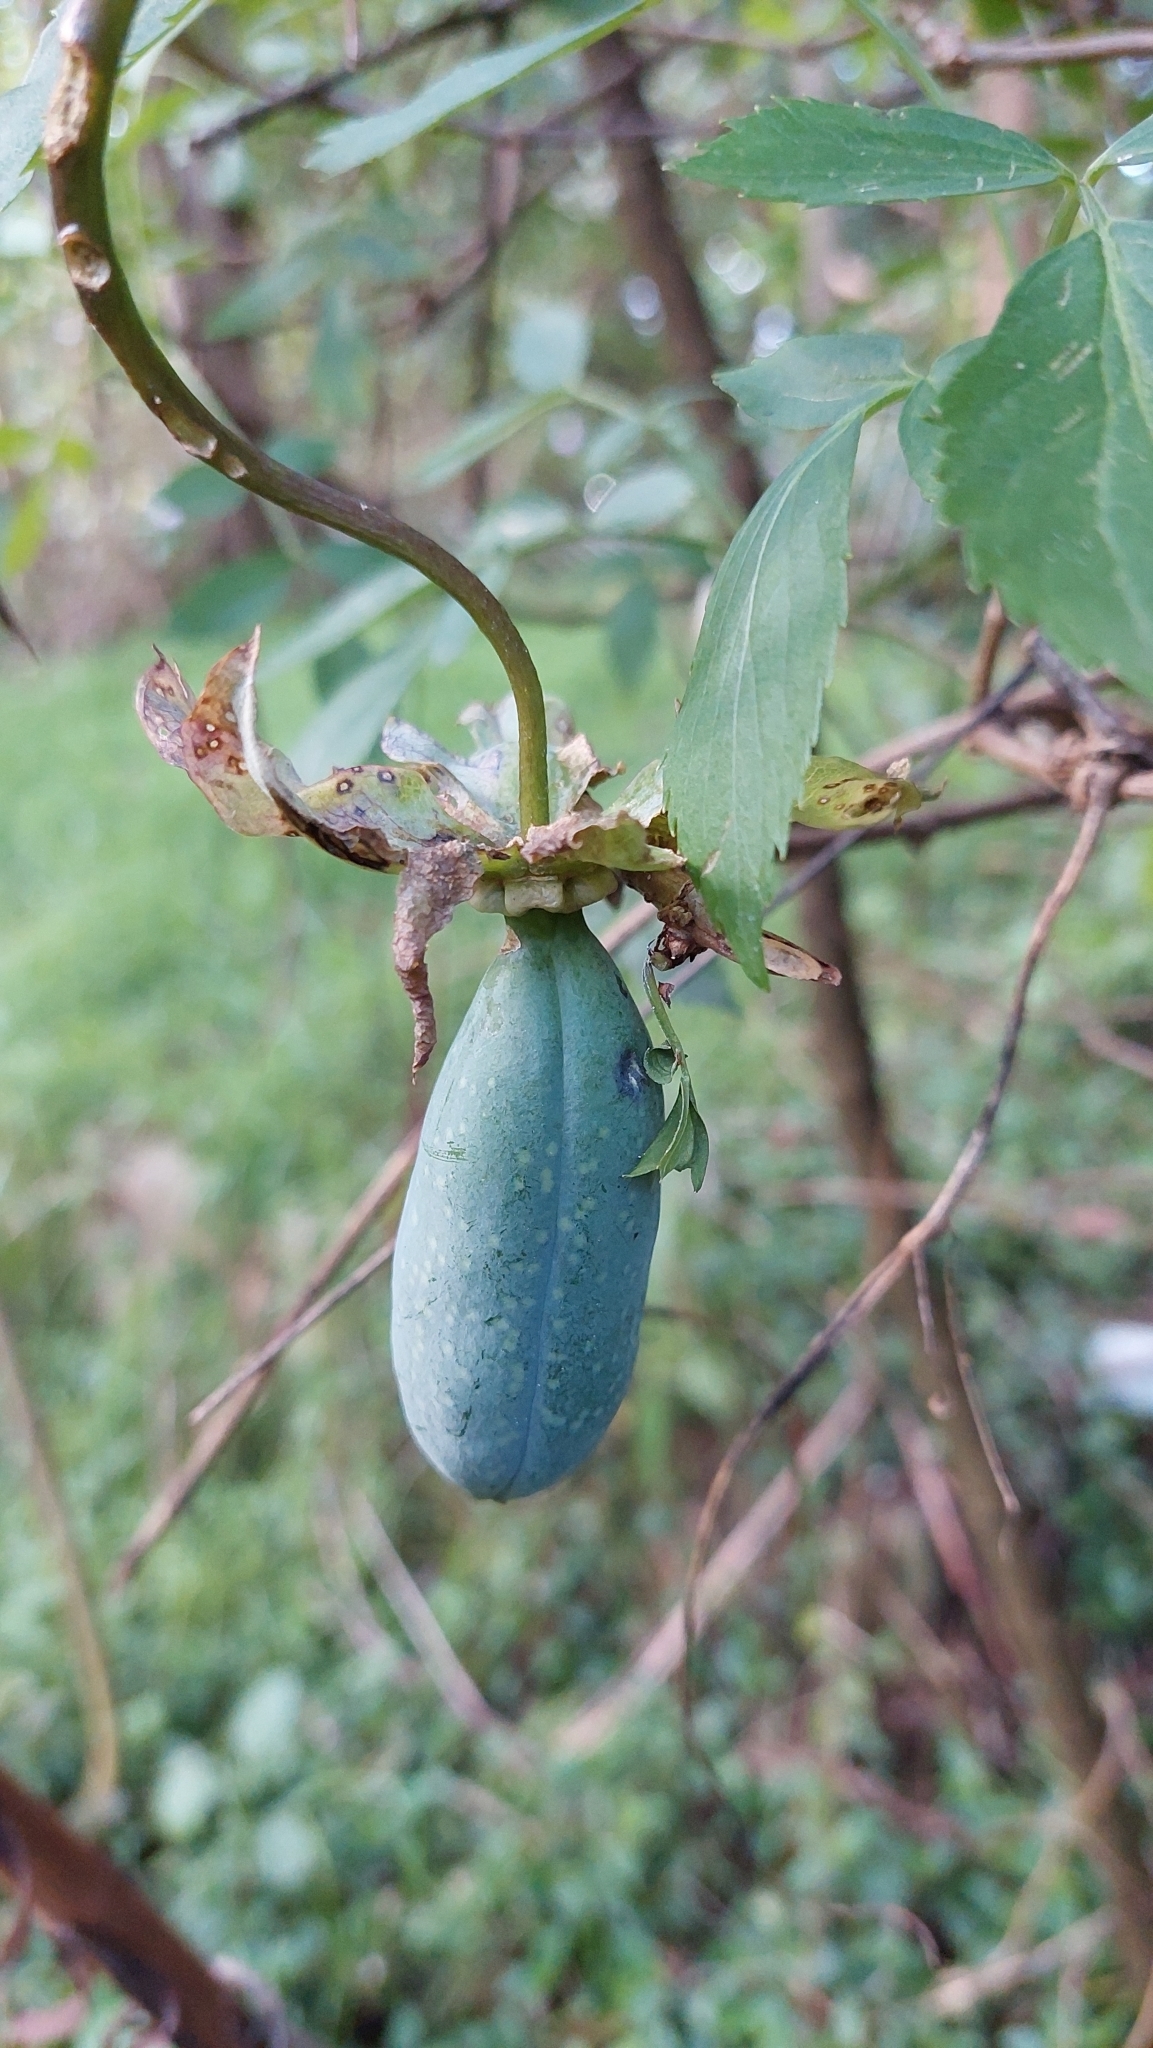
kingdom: Plantae
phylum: Tracheophyta
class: Magnoliopsida
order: Ericales
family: Polemoniaceae
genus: Cobaea
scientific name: Cobaea scandens
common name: Cup-and-saucer-vine
